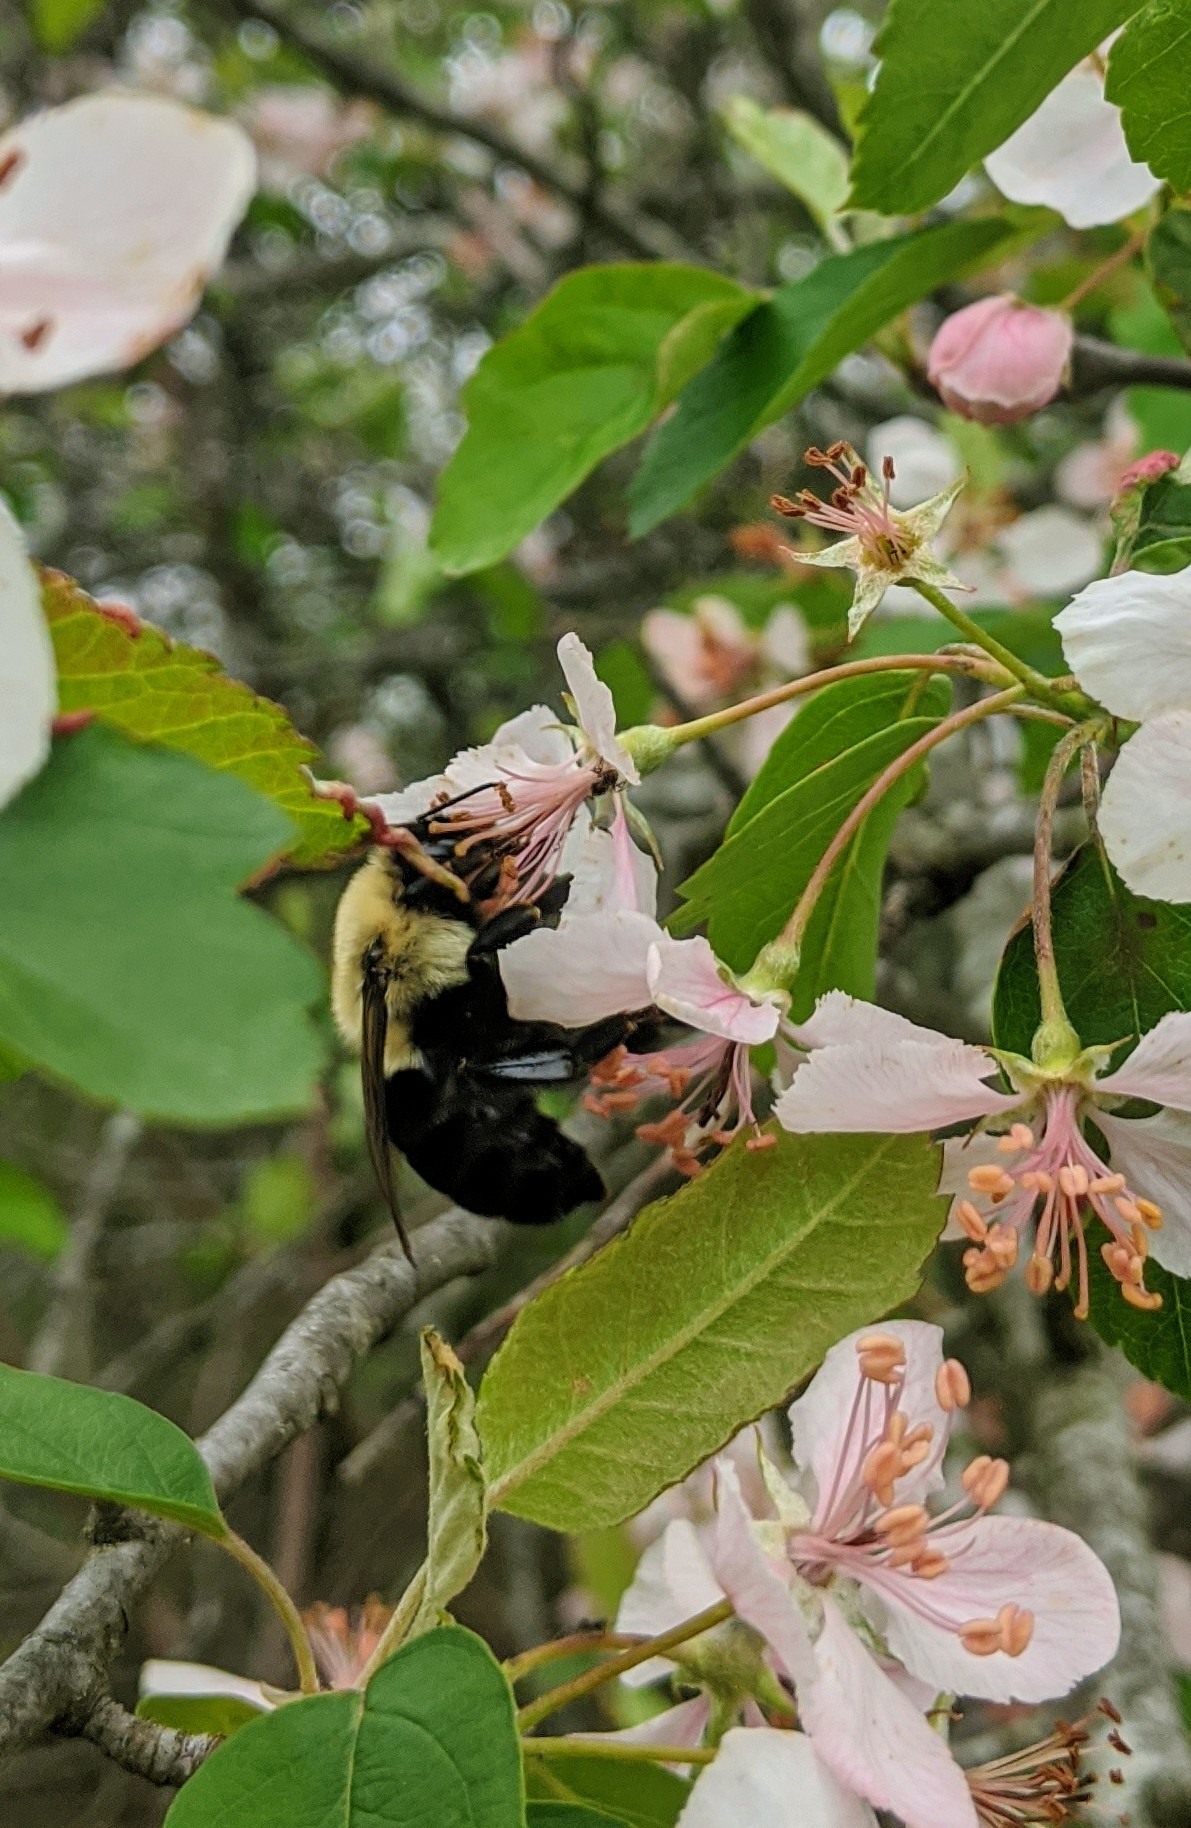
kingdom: Animalia
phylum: Arthropoda
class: Insecta
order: Hymenoptera
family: Apidae
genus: Bombus
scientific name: Bombus impatiens
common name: Common eastern bumble bee
